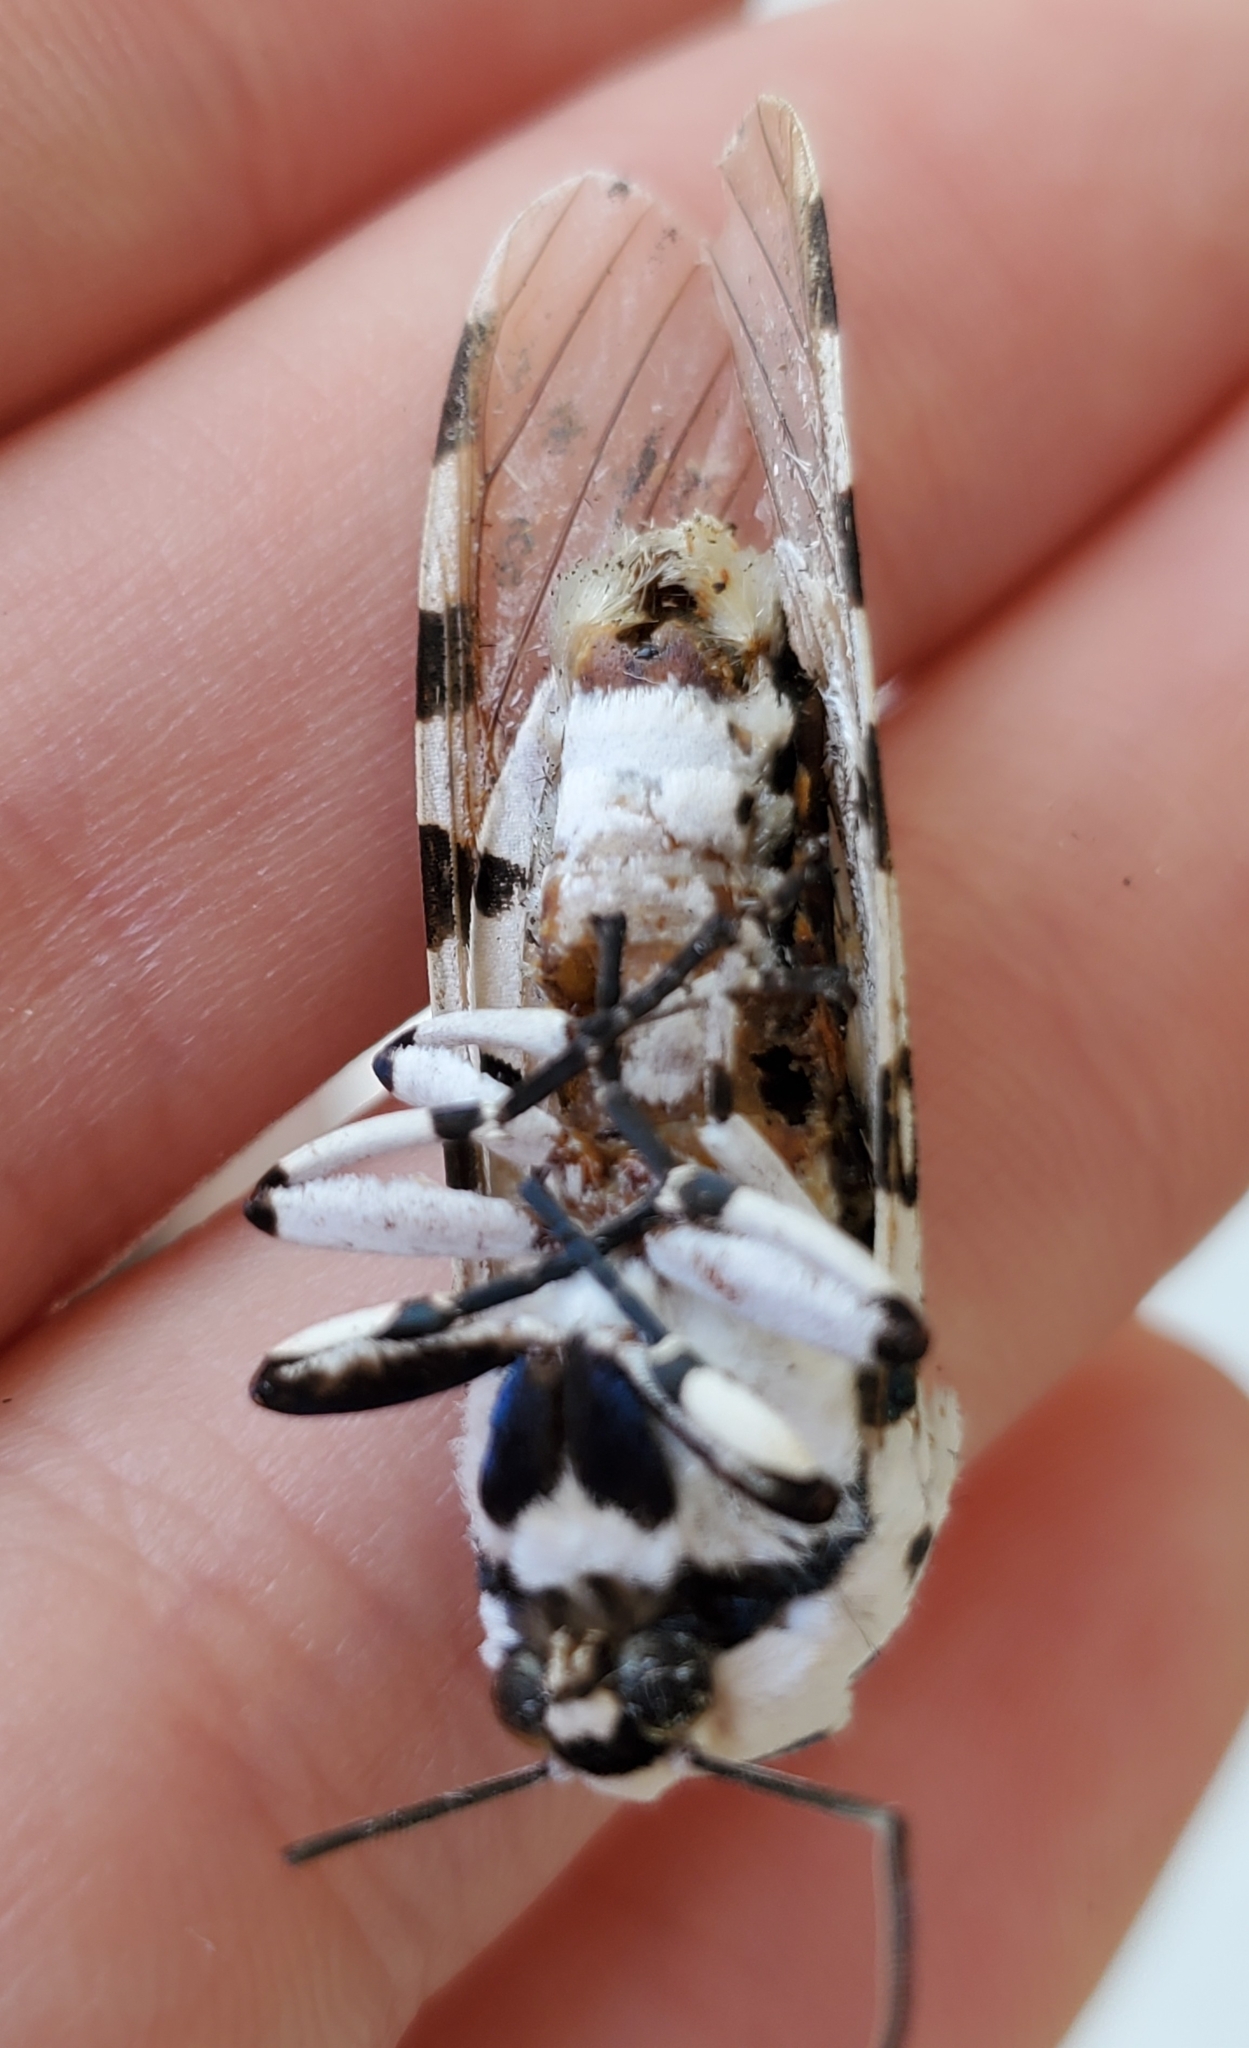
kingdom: Animalia
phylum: Arthropoda
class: Insecta
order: Lepidoptera
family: Erebidae
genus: Hypercompe
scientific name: Hypercompe scribonia
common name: Giant leopard moth
